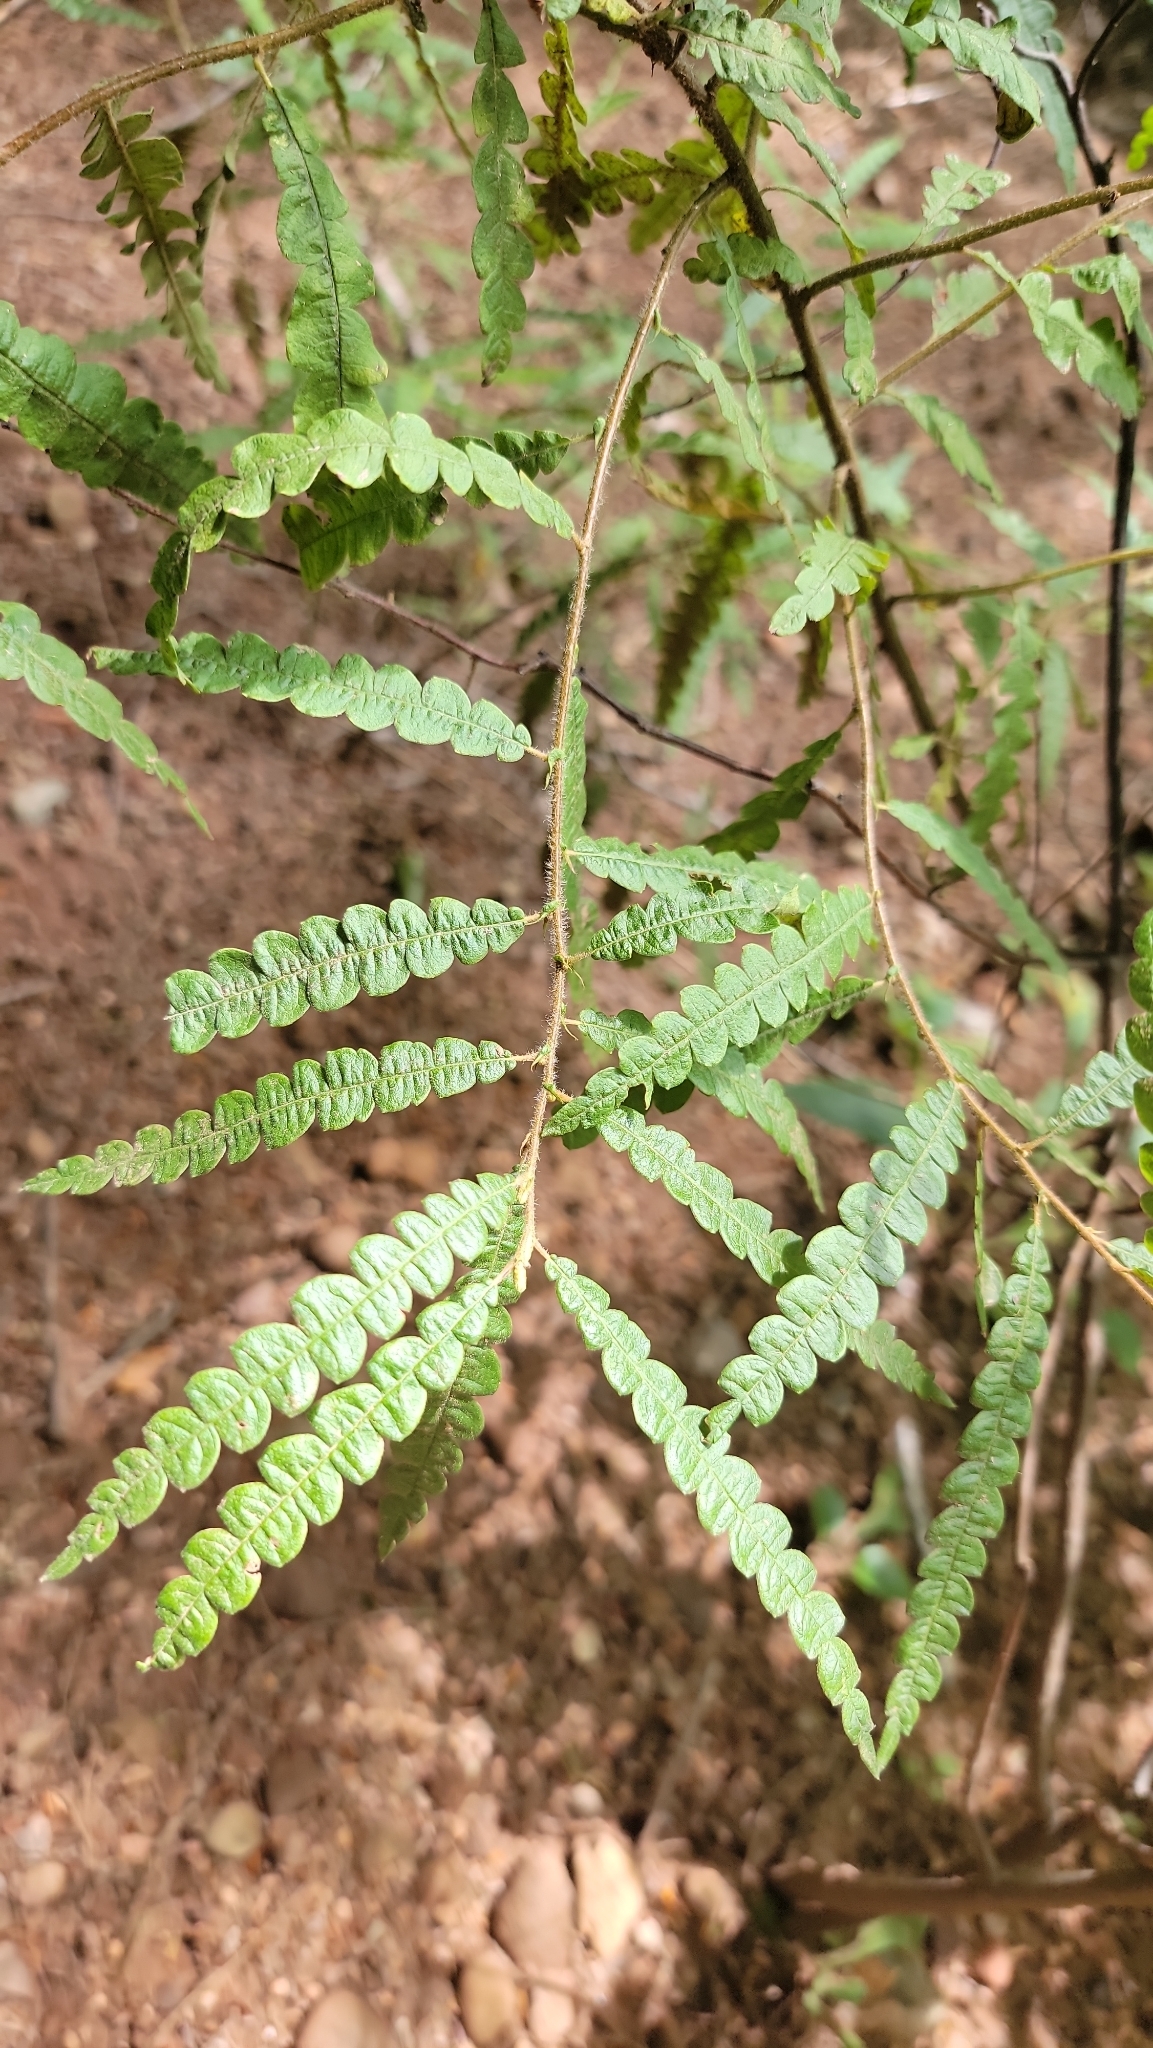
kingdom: Plantae
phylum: Tracheophyta
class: Magnoliopsida
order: Fagales
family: Myricaceae
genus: Comptonia
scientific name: Comptonia peregrina
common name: Sweet-fern
